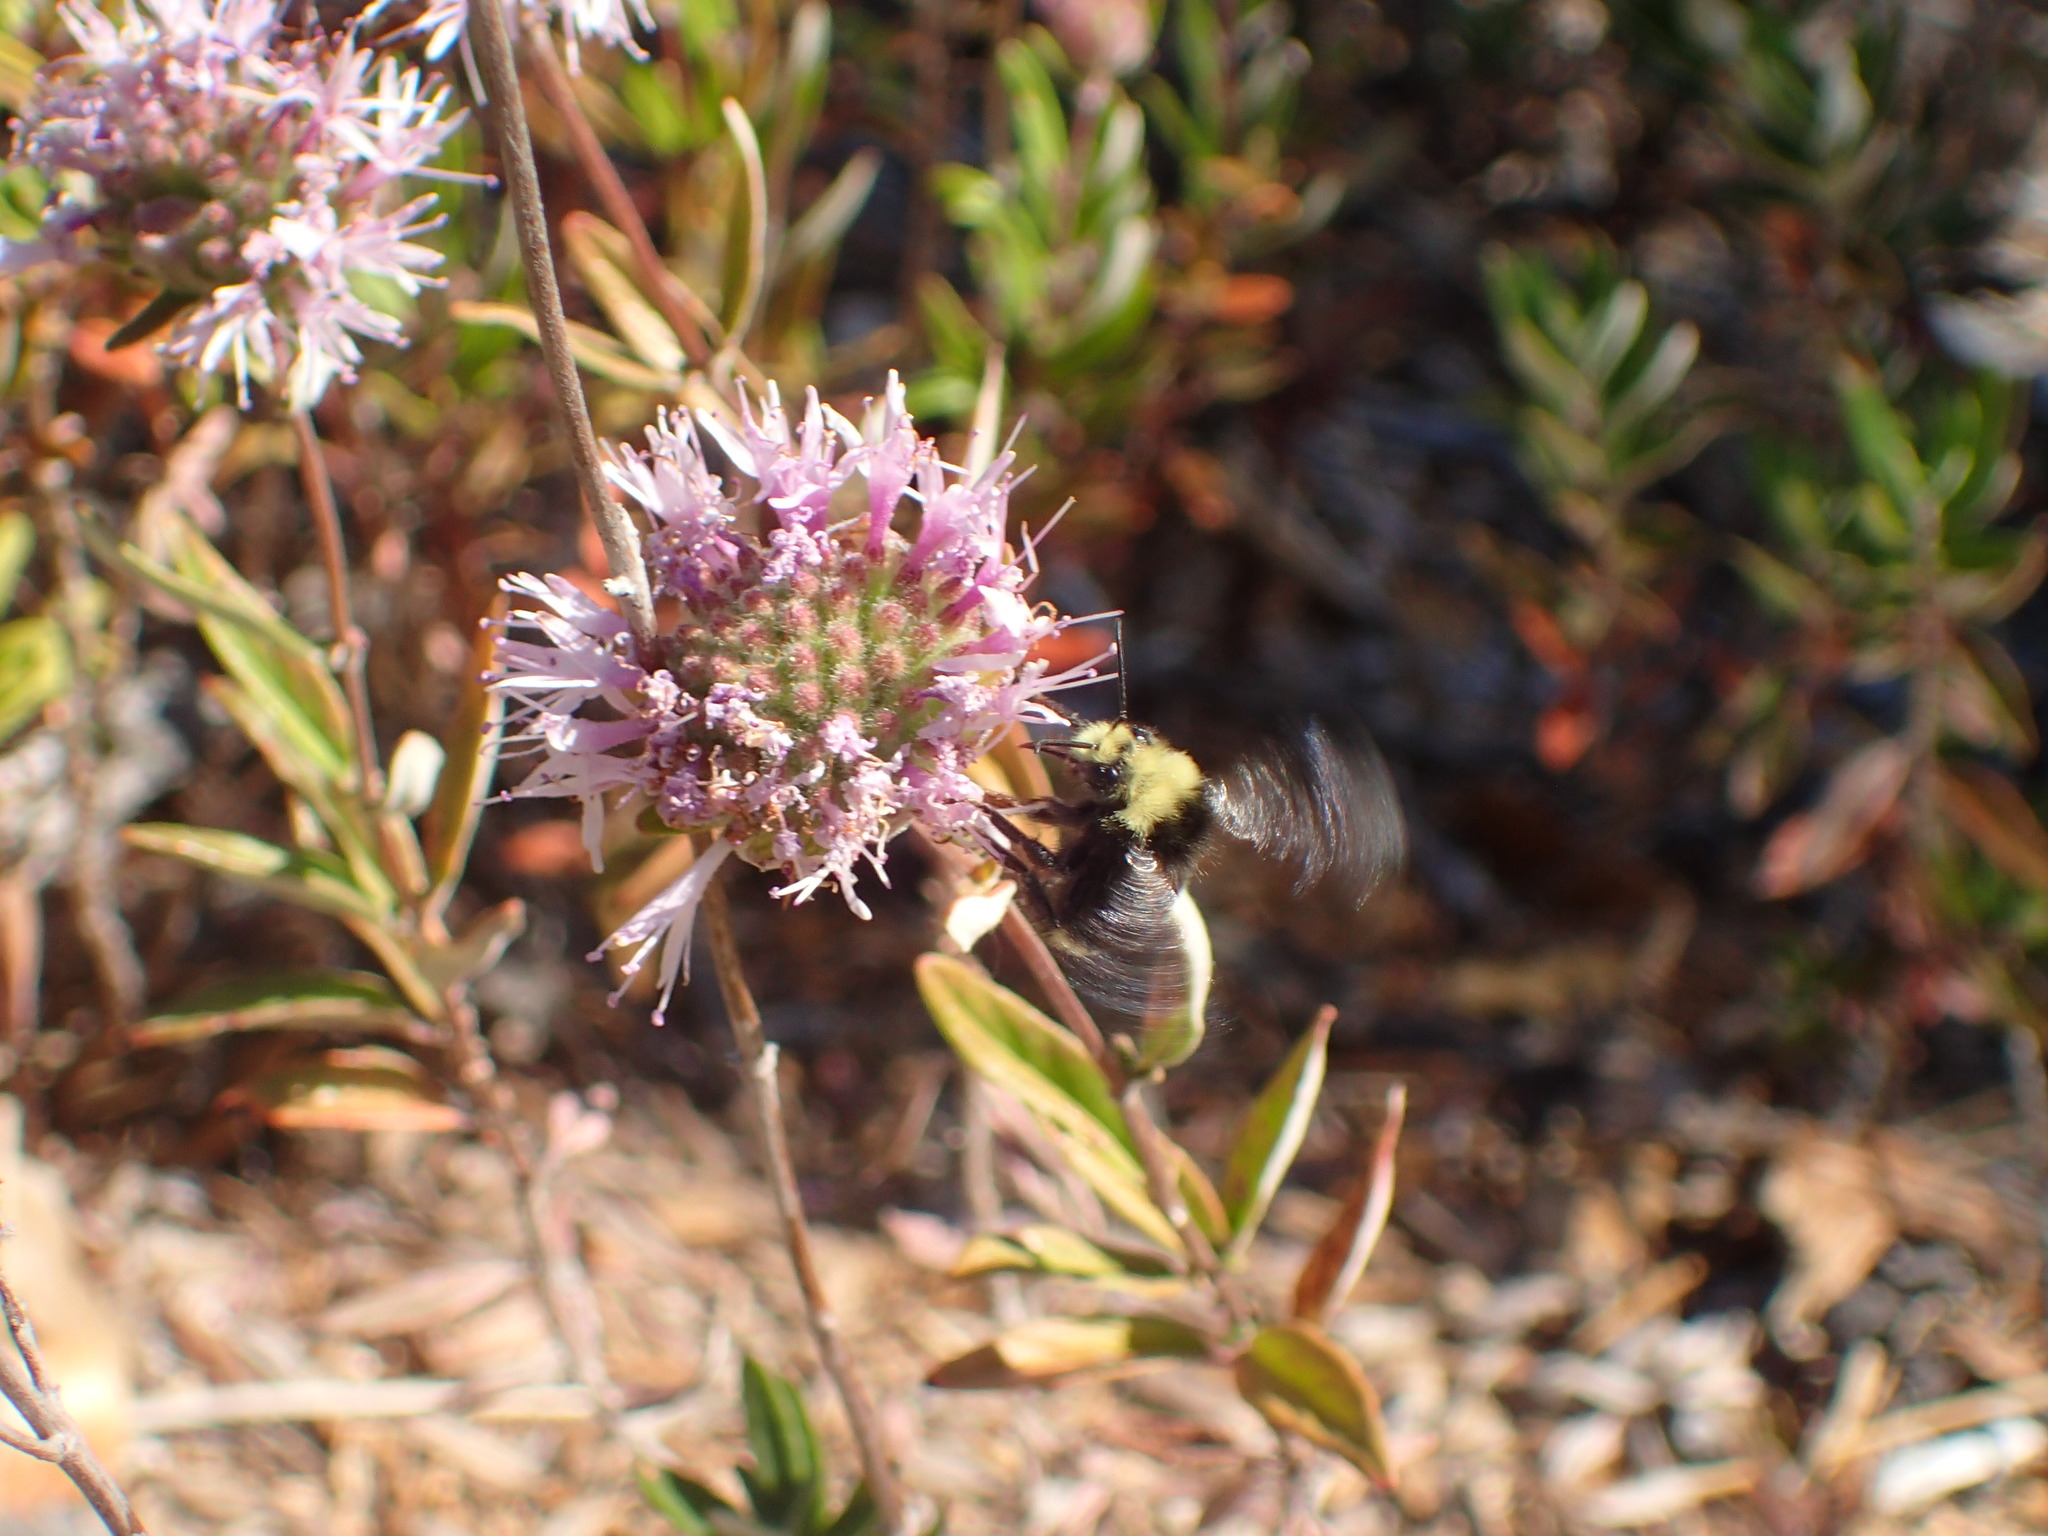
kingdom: Plantae
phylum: Tracheophyta
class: Magnoliopsida
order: Lamiales
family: Lamiaceae
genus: Monardella
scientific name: Monardella hypoleuca
